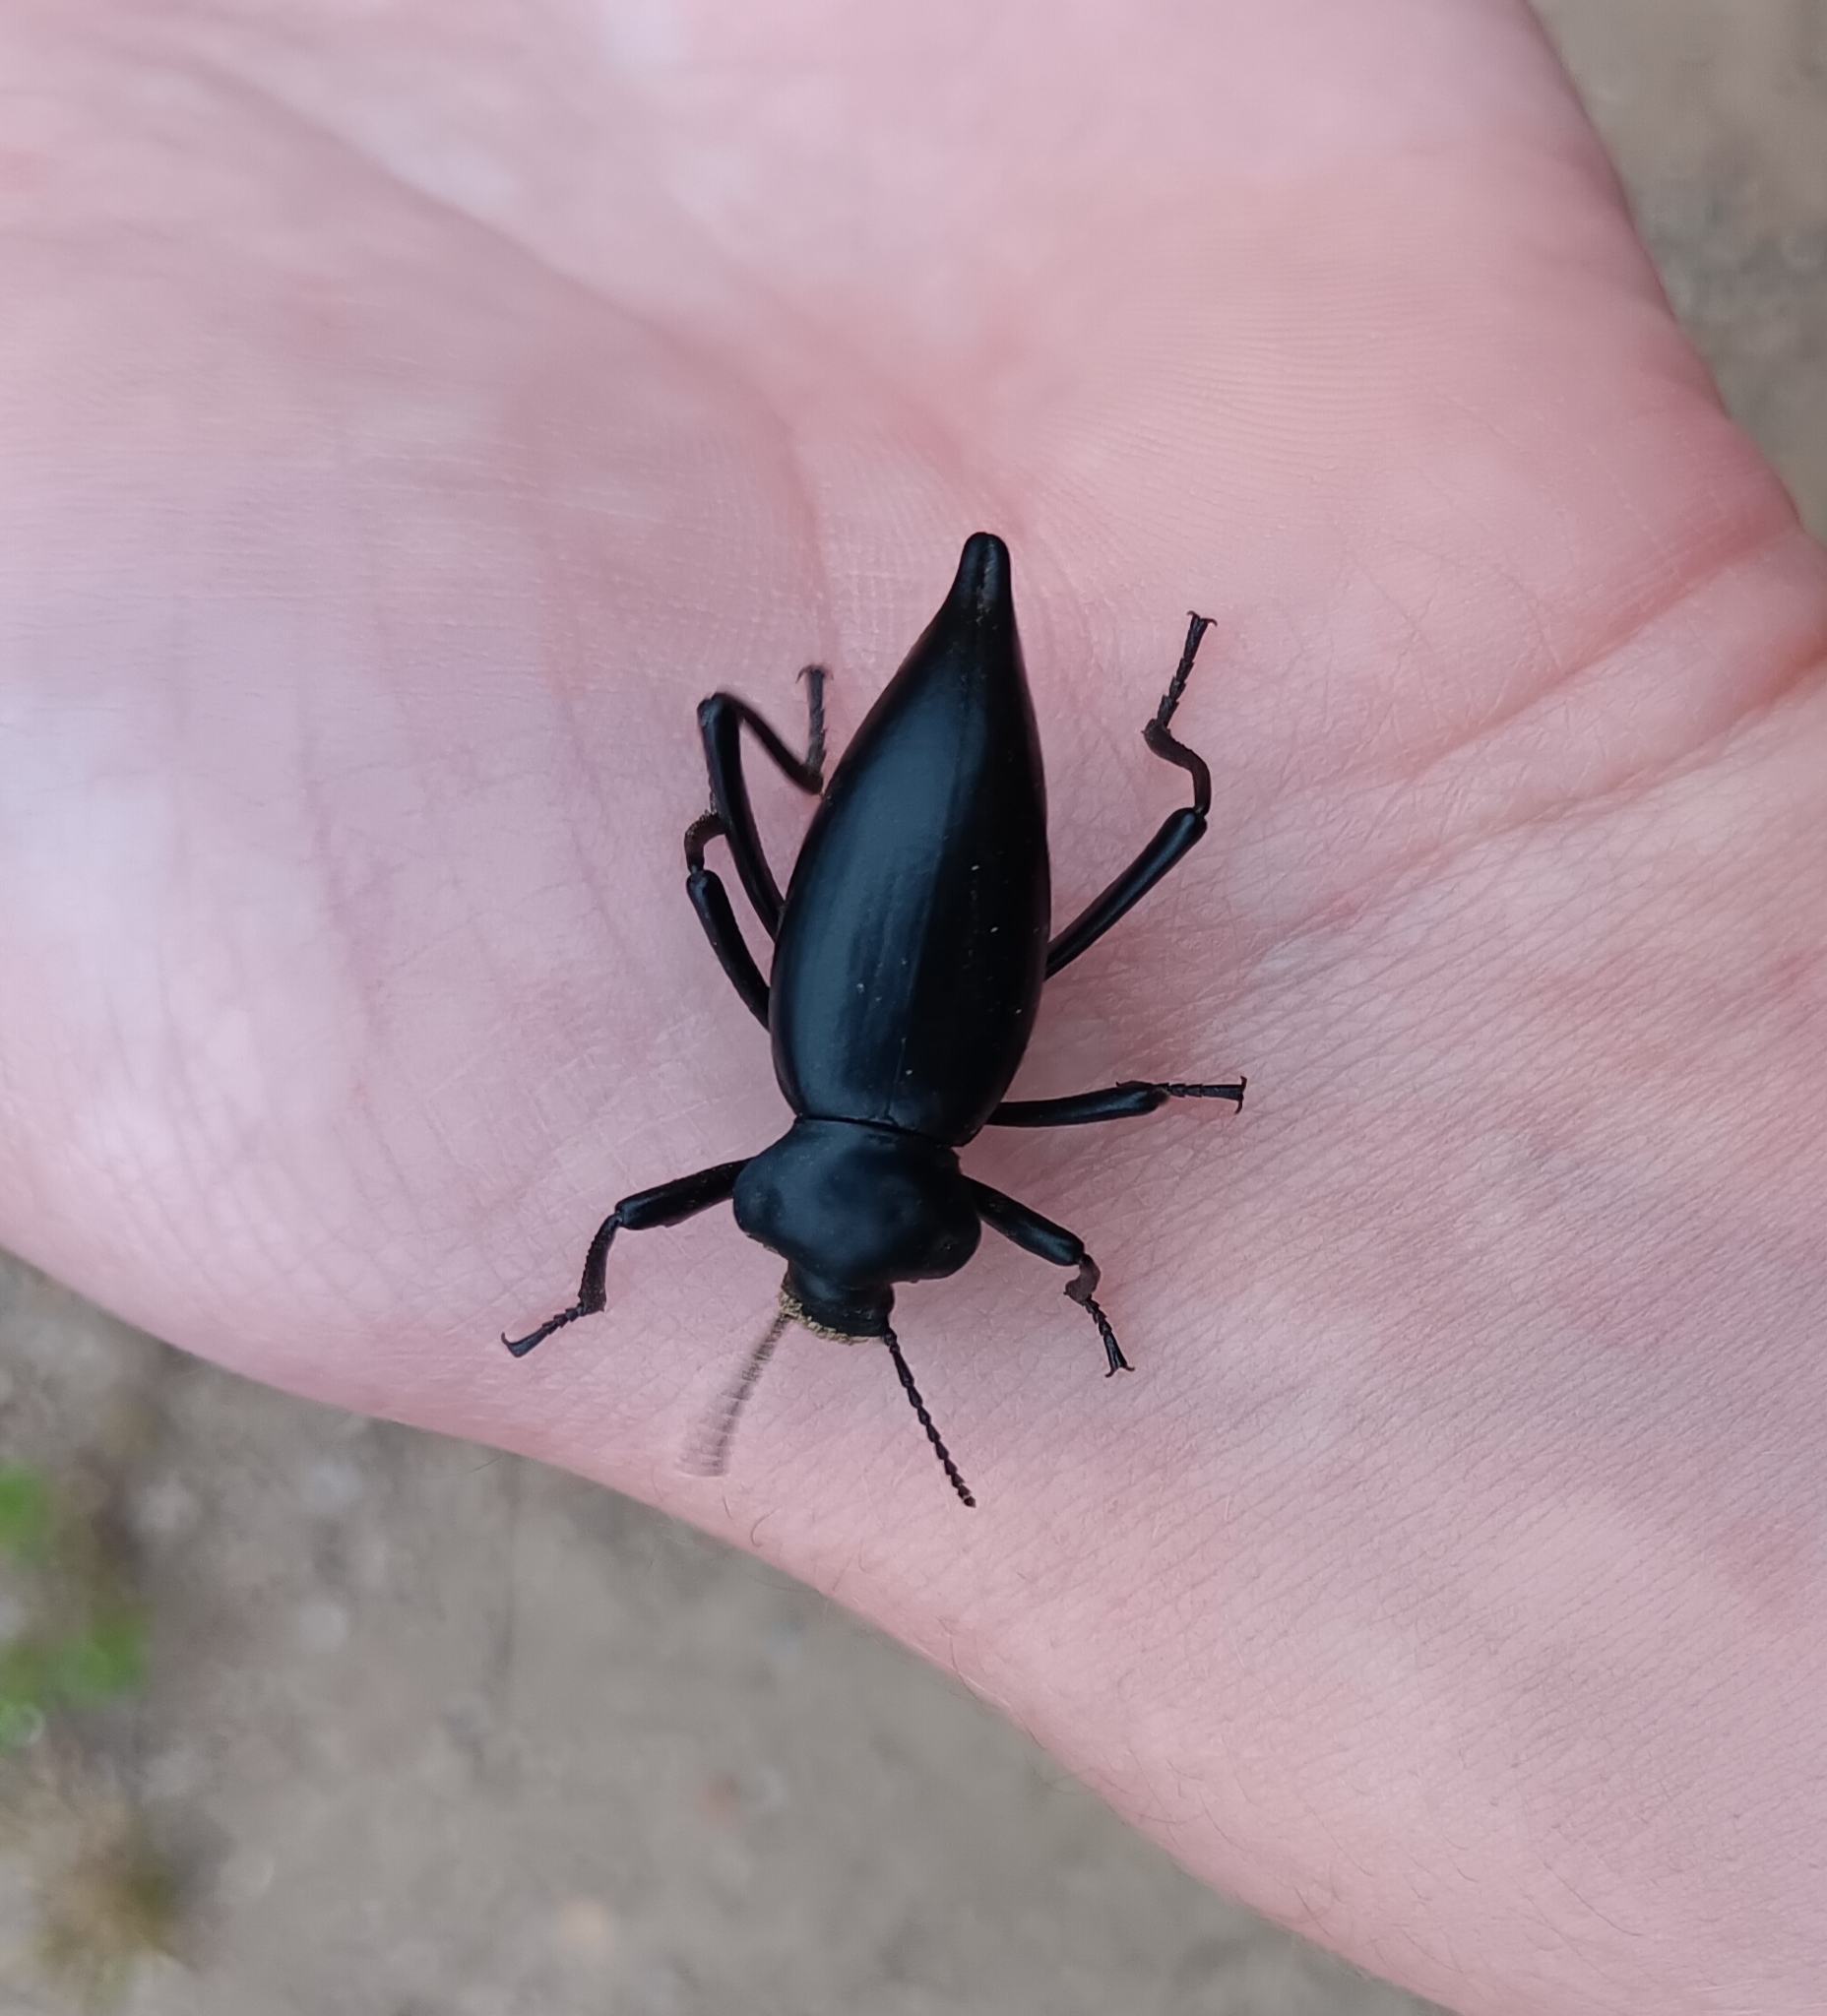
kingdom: Animalia
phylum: Arthropoda
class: Insecta
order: Coleoptera
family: Tenebrionidae
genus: Eleodes
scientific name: Eleodes acuticauda
